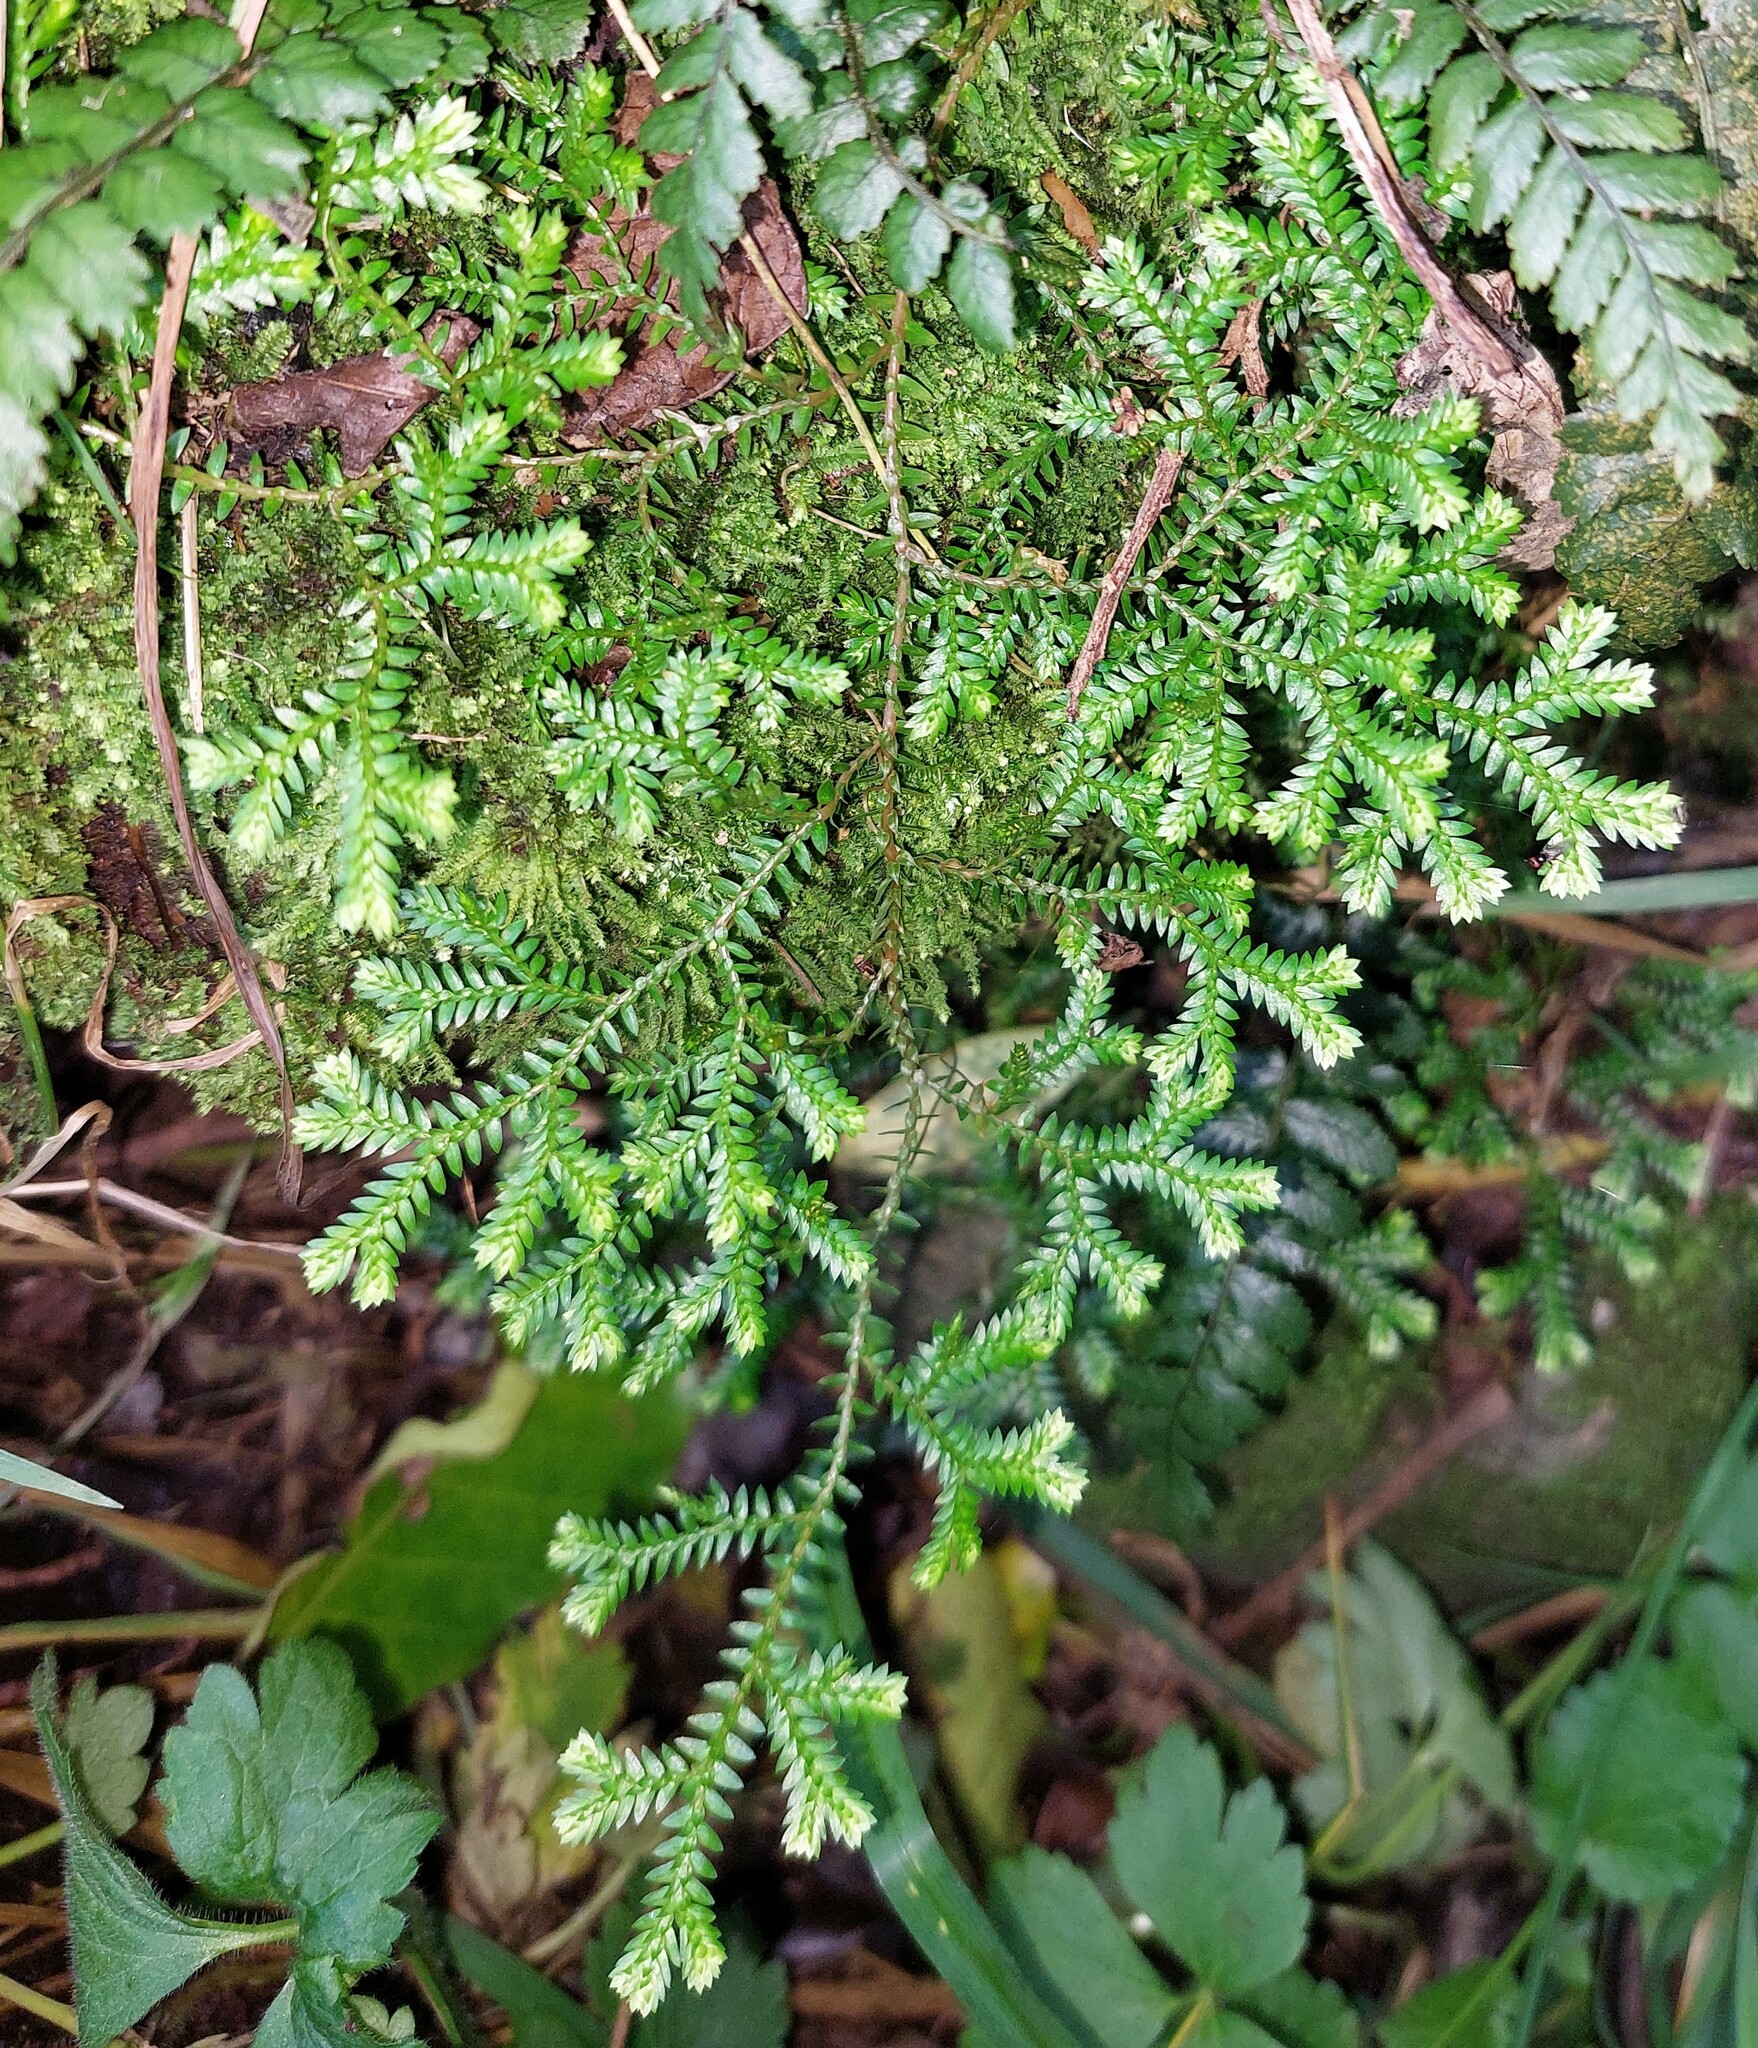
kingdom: Plantae
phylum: Tracheophyta
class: Lycopodiopsida
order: Selaginellales
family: Selaginellaceae
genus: Selaginella
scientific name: Selaginella kraussiana
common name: Krauss' spikemoss
